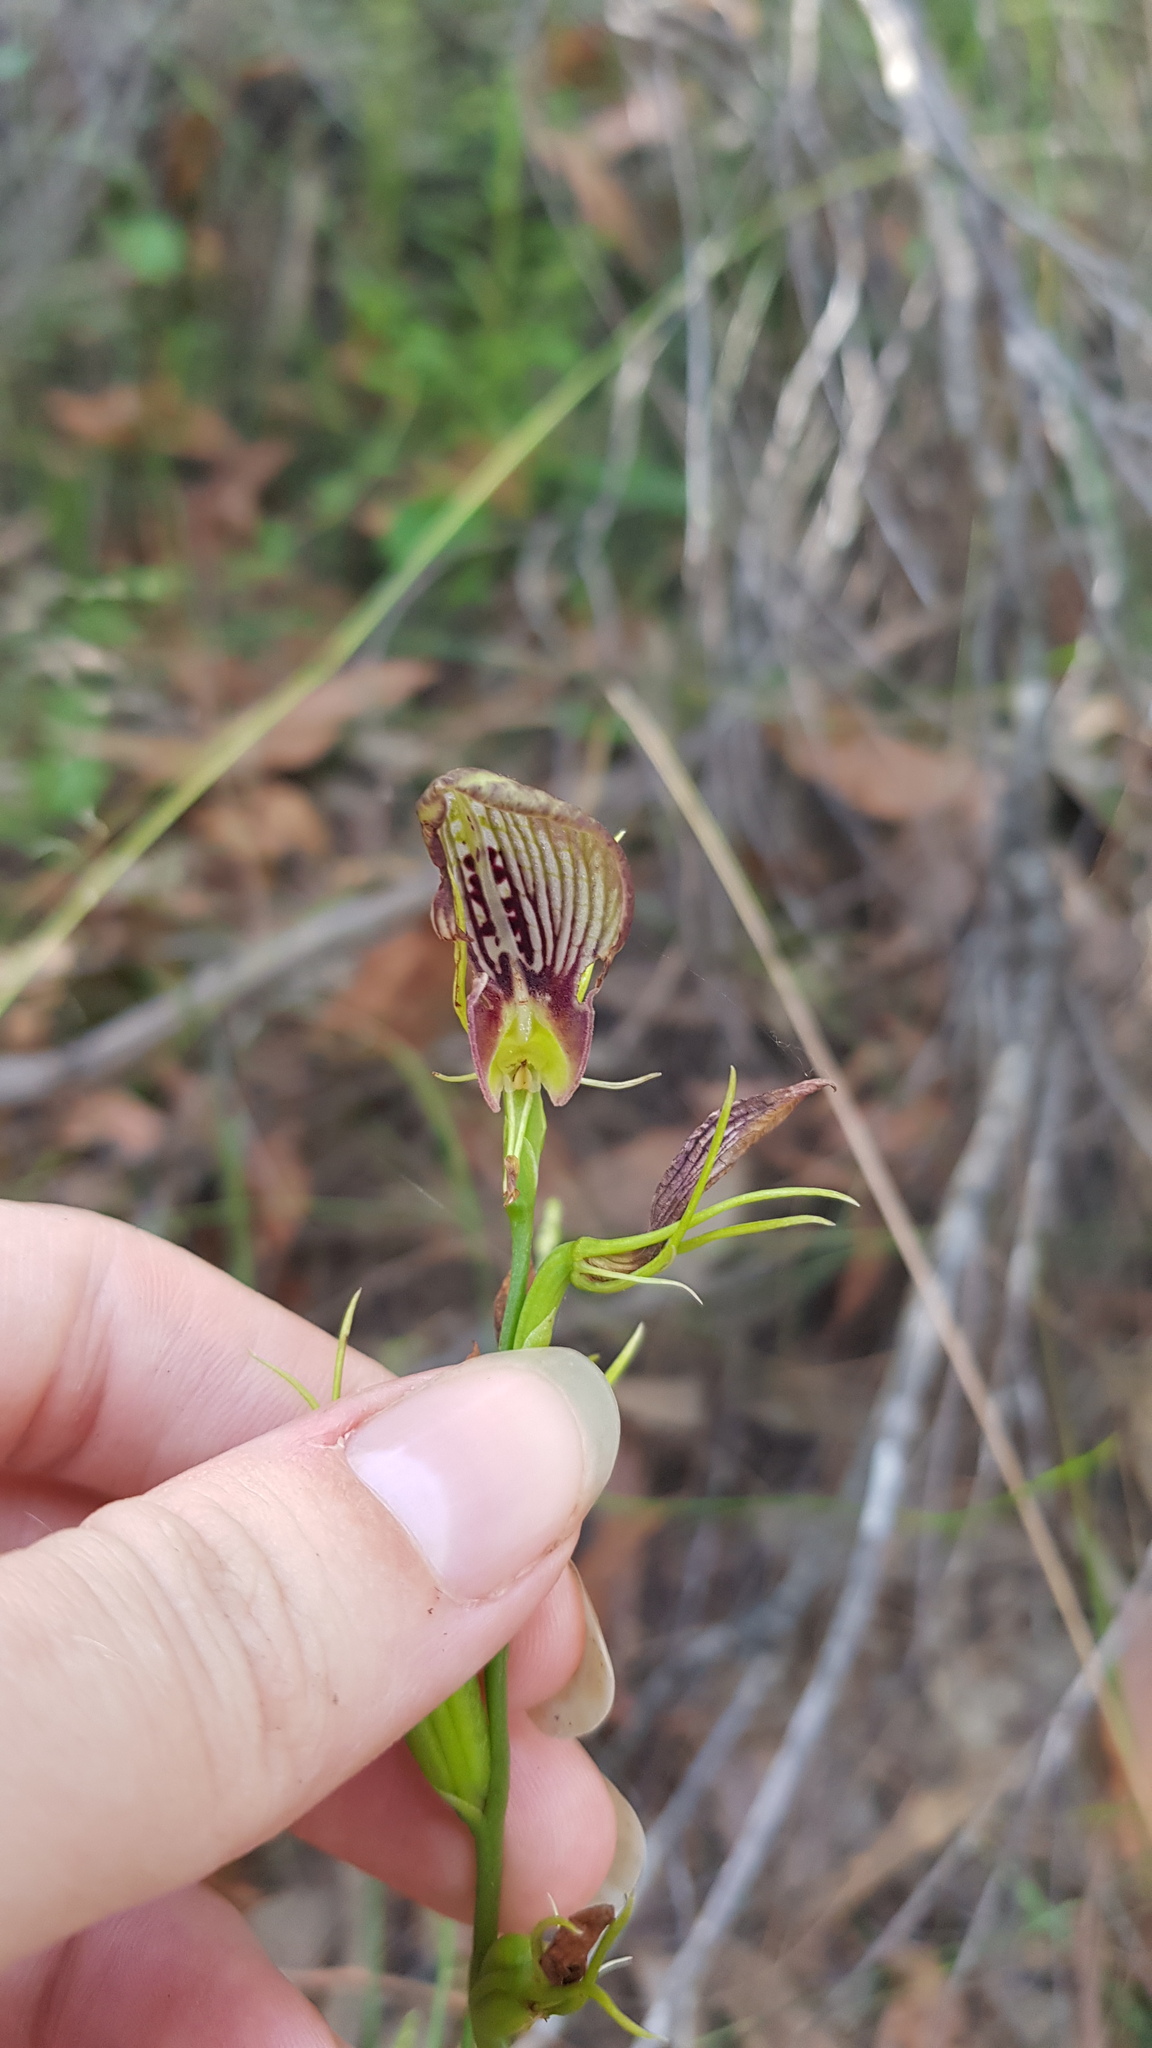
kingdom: Plantae
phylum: Tracheophyta
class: Liliopsida
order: Asparagales
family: Orchidaceae
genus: Cryptostylis
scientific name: Cryptostylis erecta
